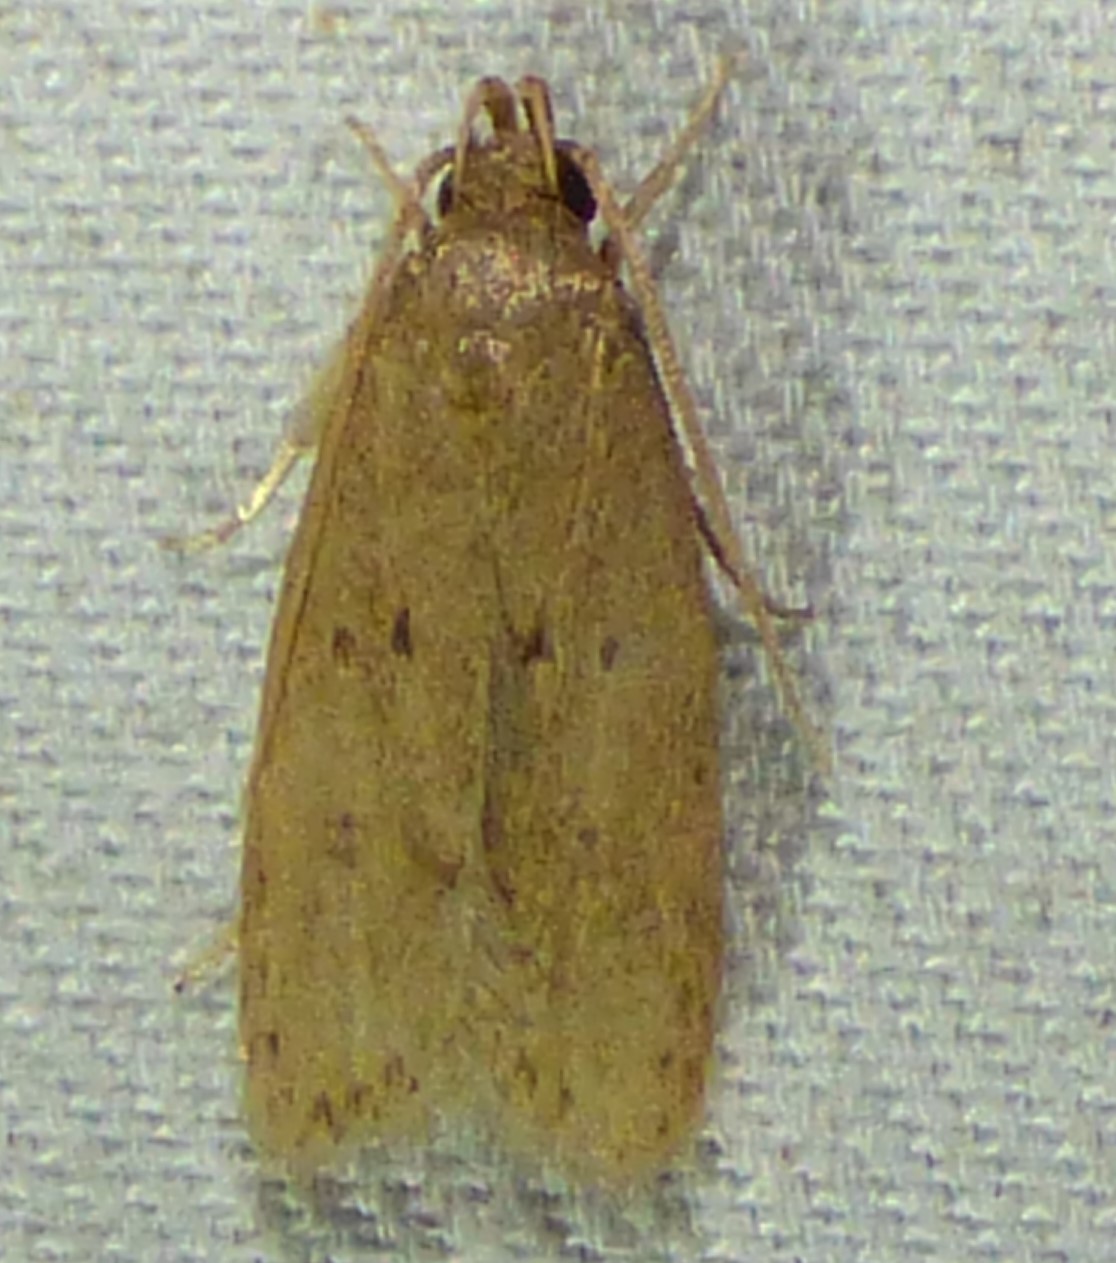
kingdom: Animalia
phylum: Arthropoda
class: Insecta
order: Lepidoptera
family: Autostichidae
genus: Autosticha
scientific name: Autosticha kyotensis
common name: Kyoto moth
